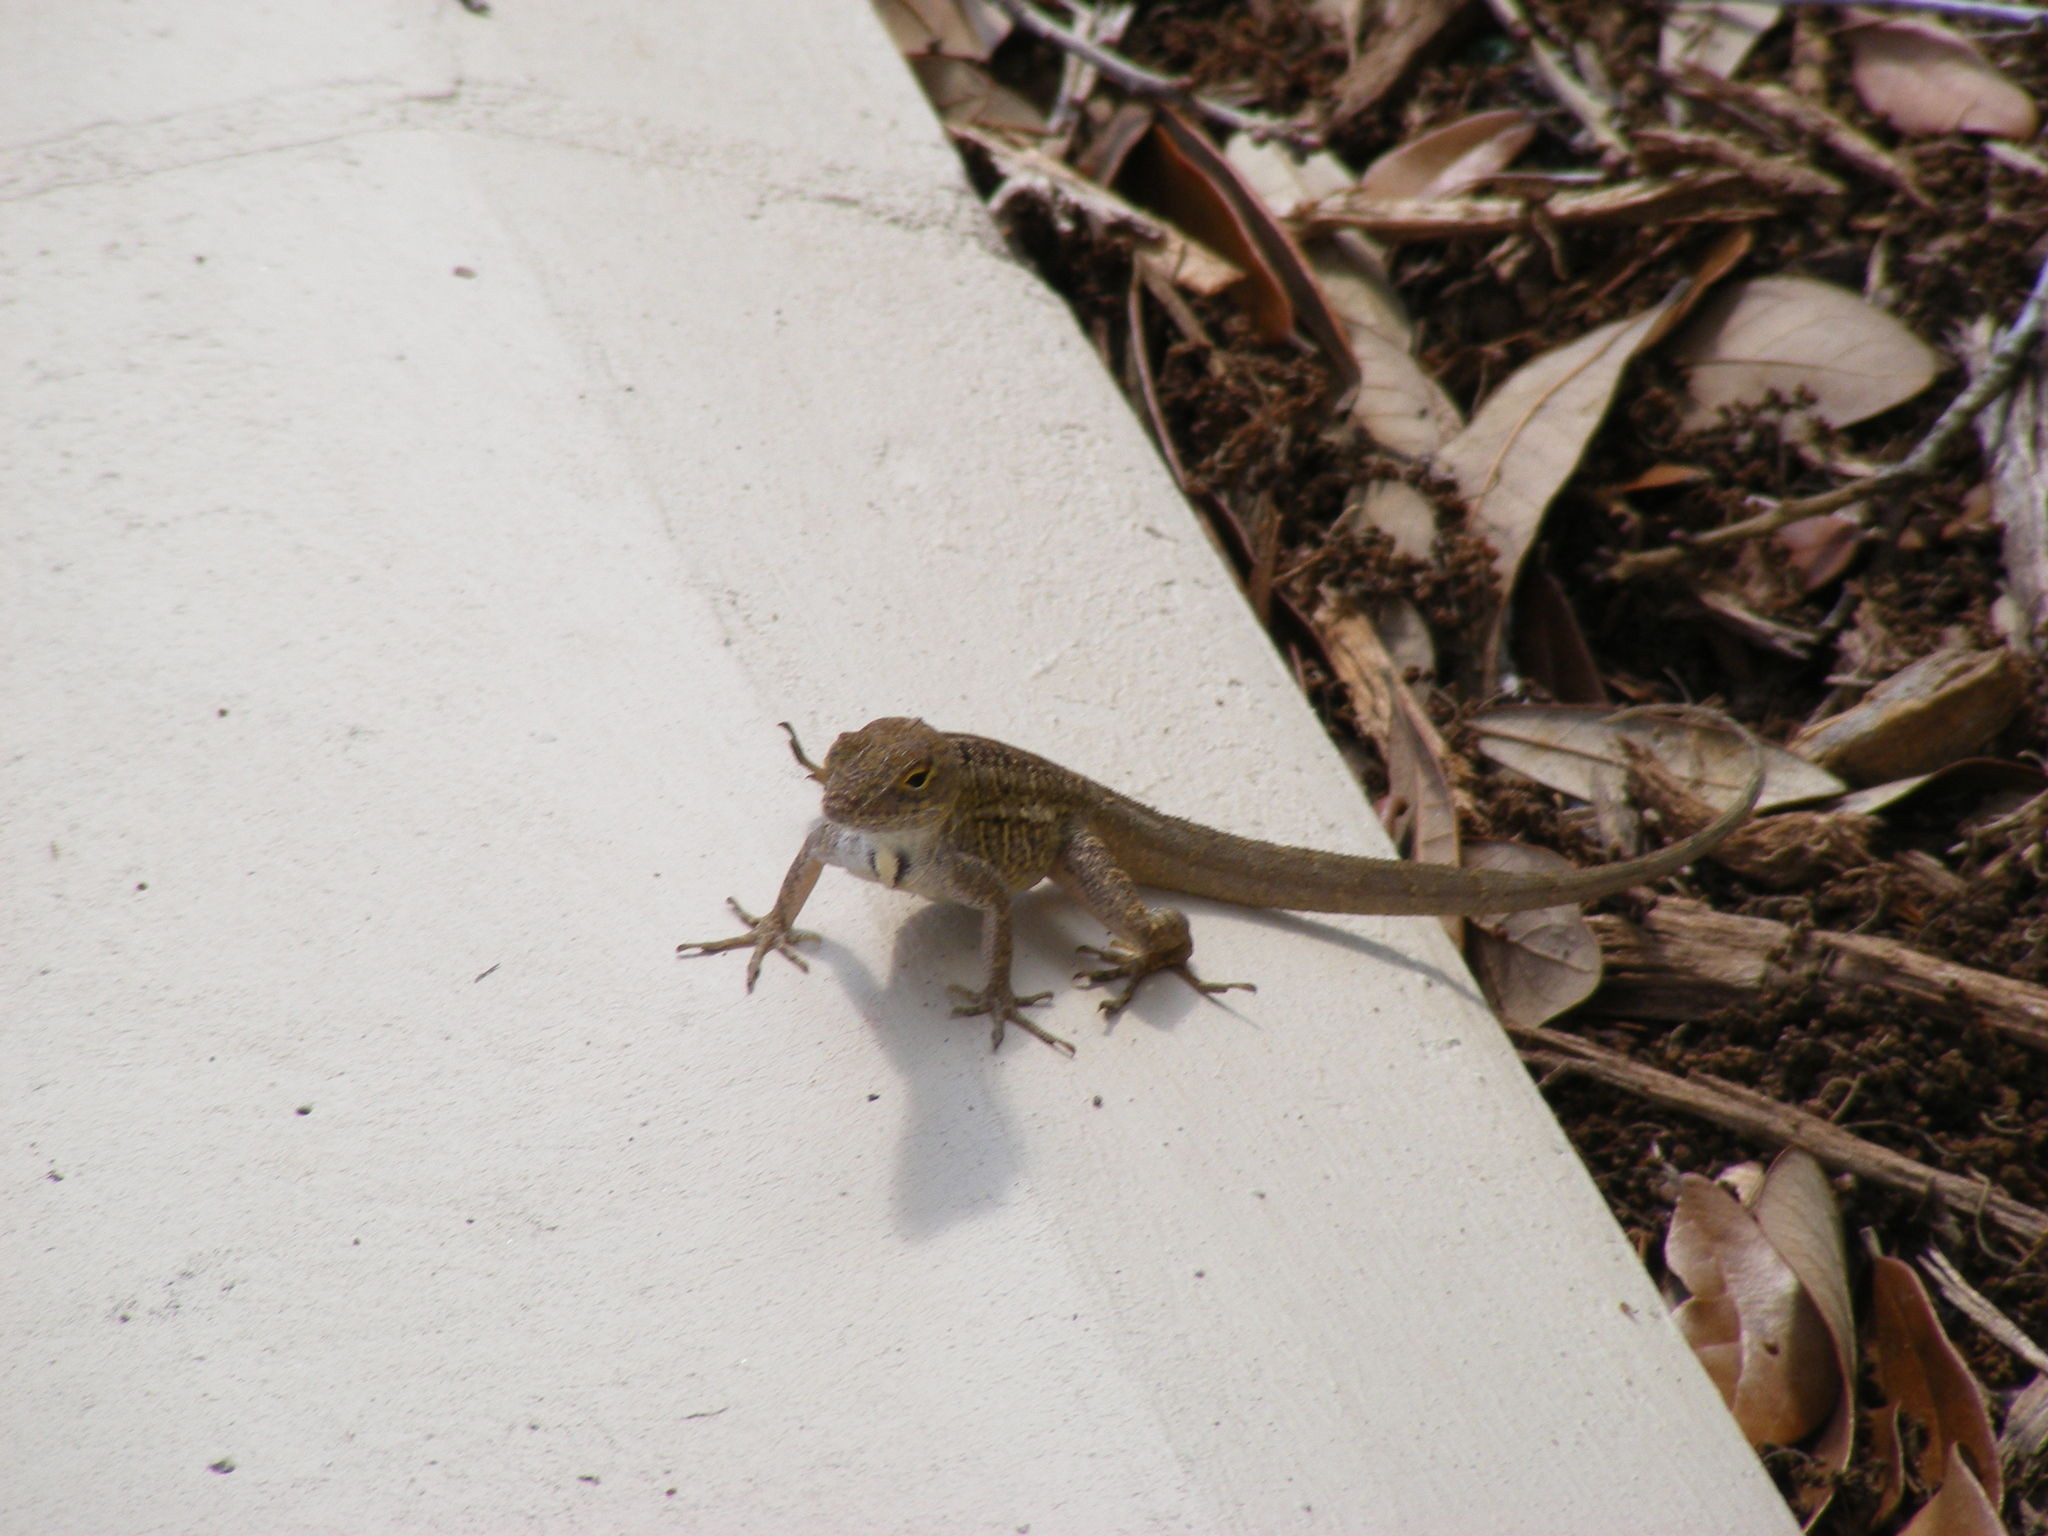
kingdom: Animalia
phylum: Chordata
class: Squamata
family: Dactyloidae
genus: Anolis
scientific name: Anolis sagrei
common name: Brown anole
